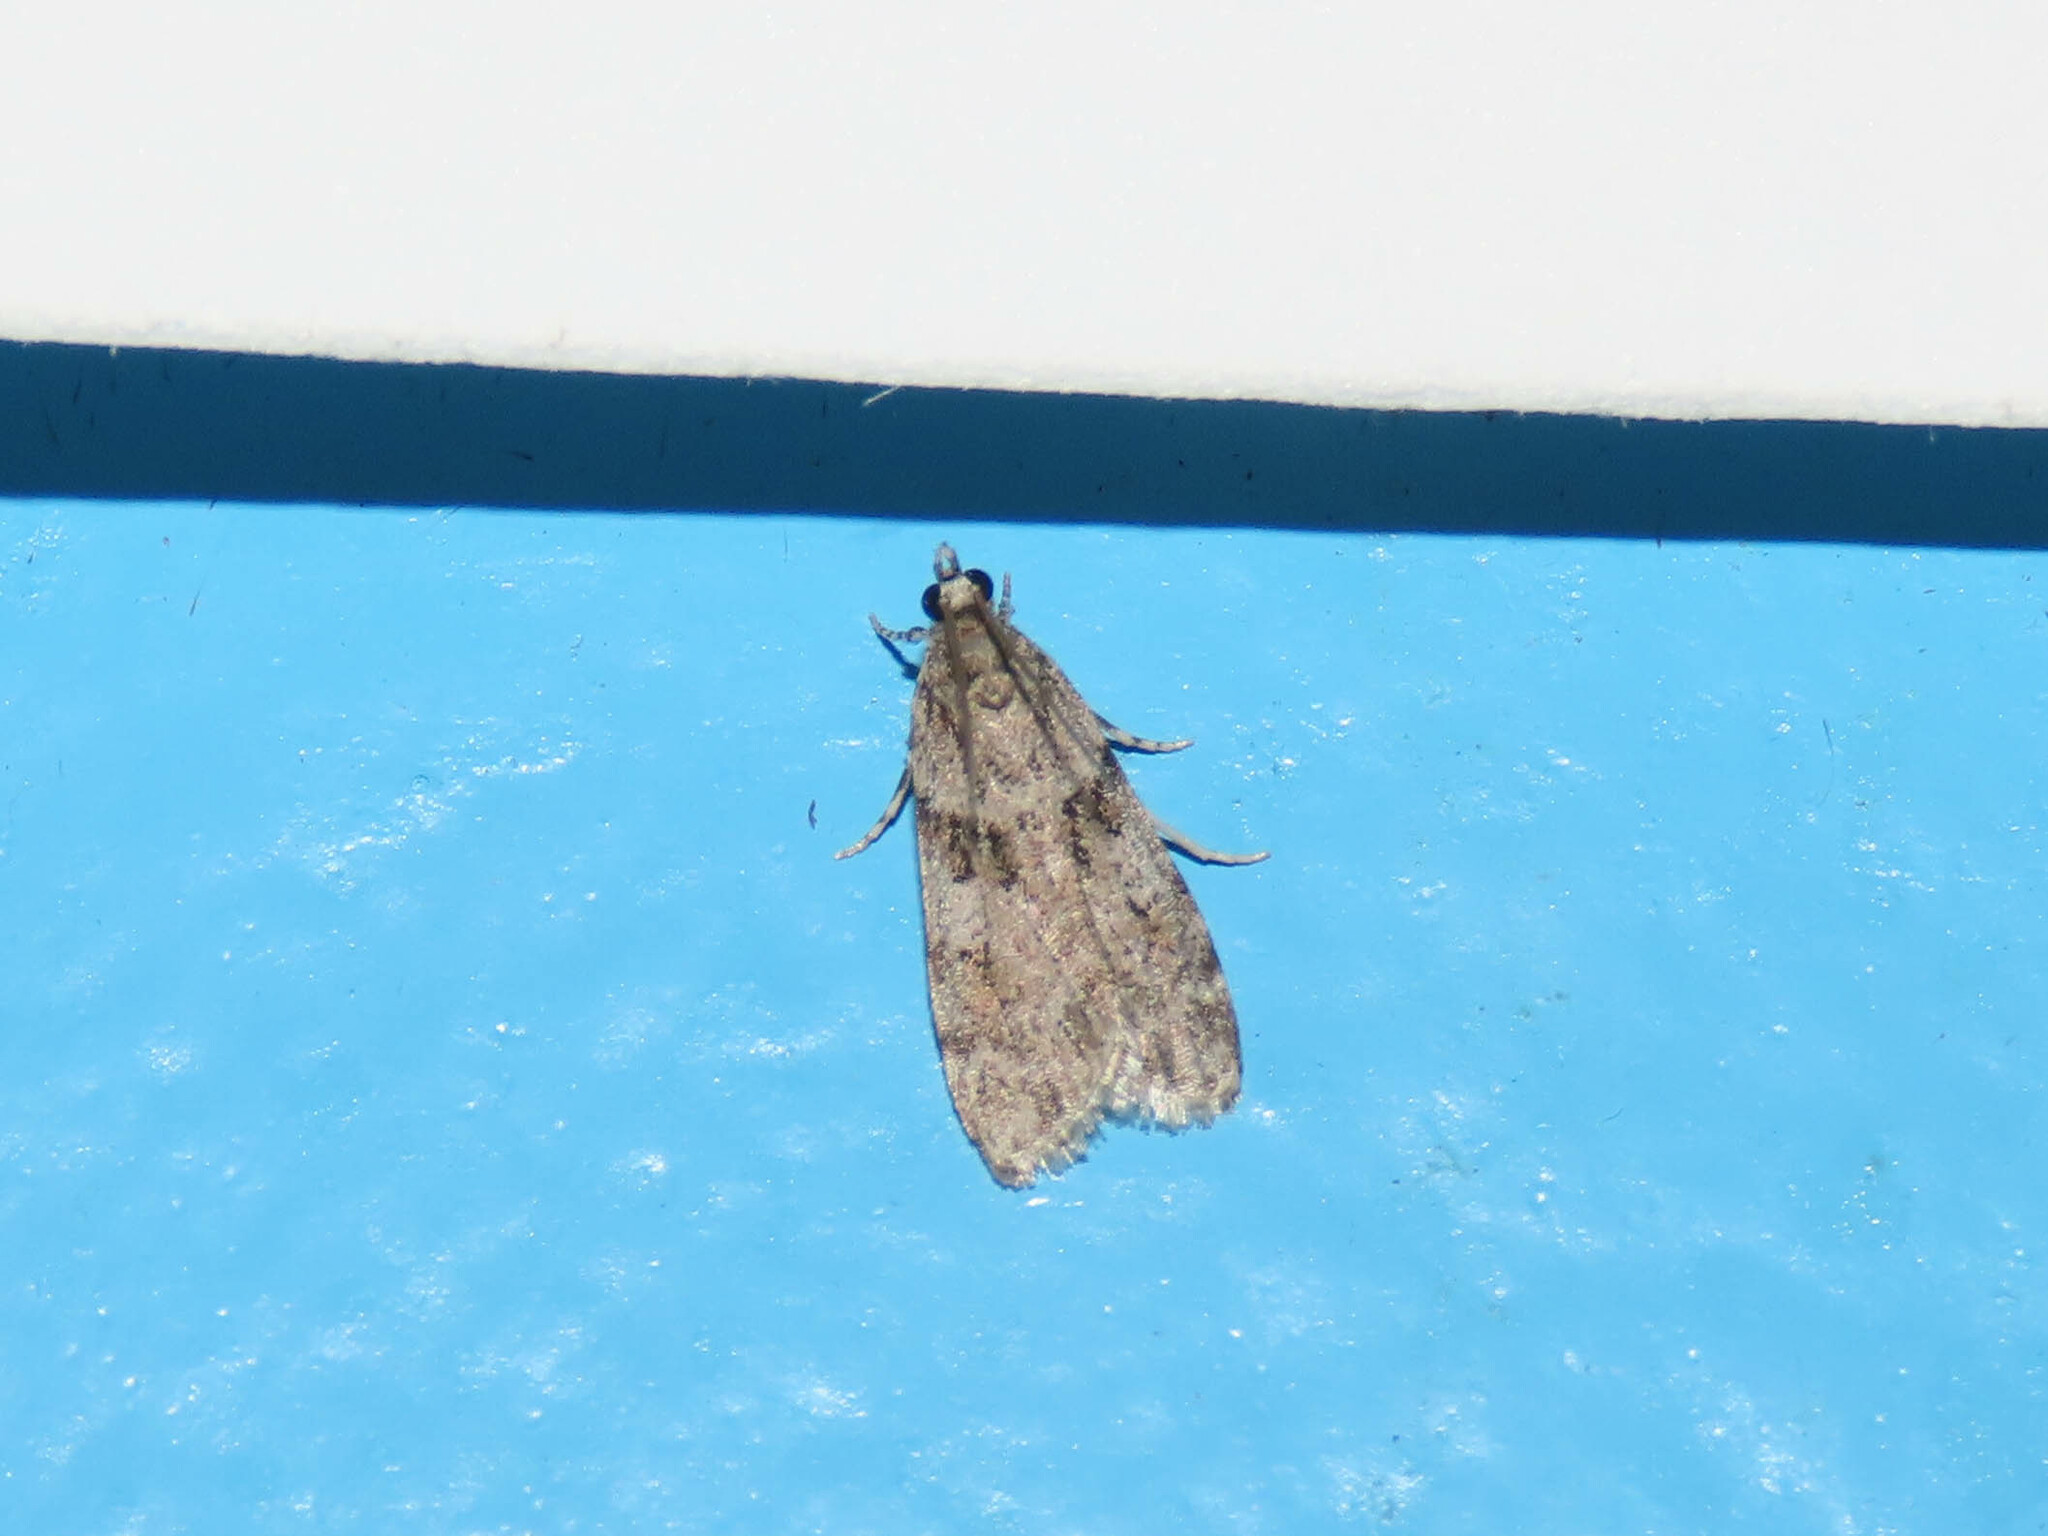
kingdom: Animalia
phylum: Arthropoda
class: Insecta
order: Lepidoptera
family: Crambidae
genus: Scoparia
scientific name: Scoparia biplagialis
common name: Double-striped scoparia moth
